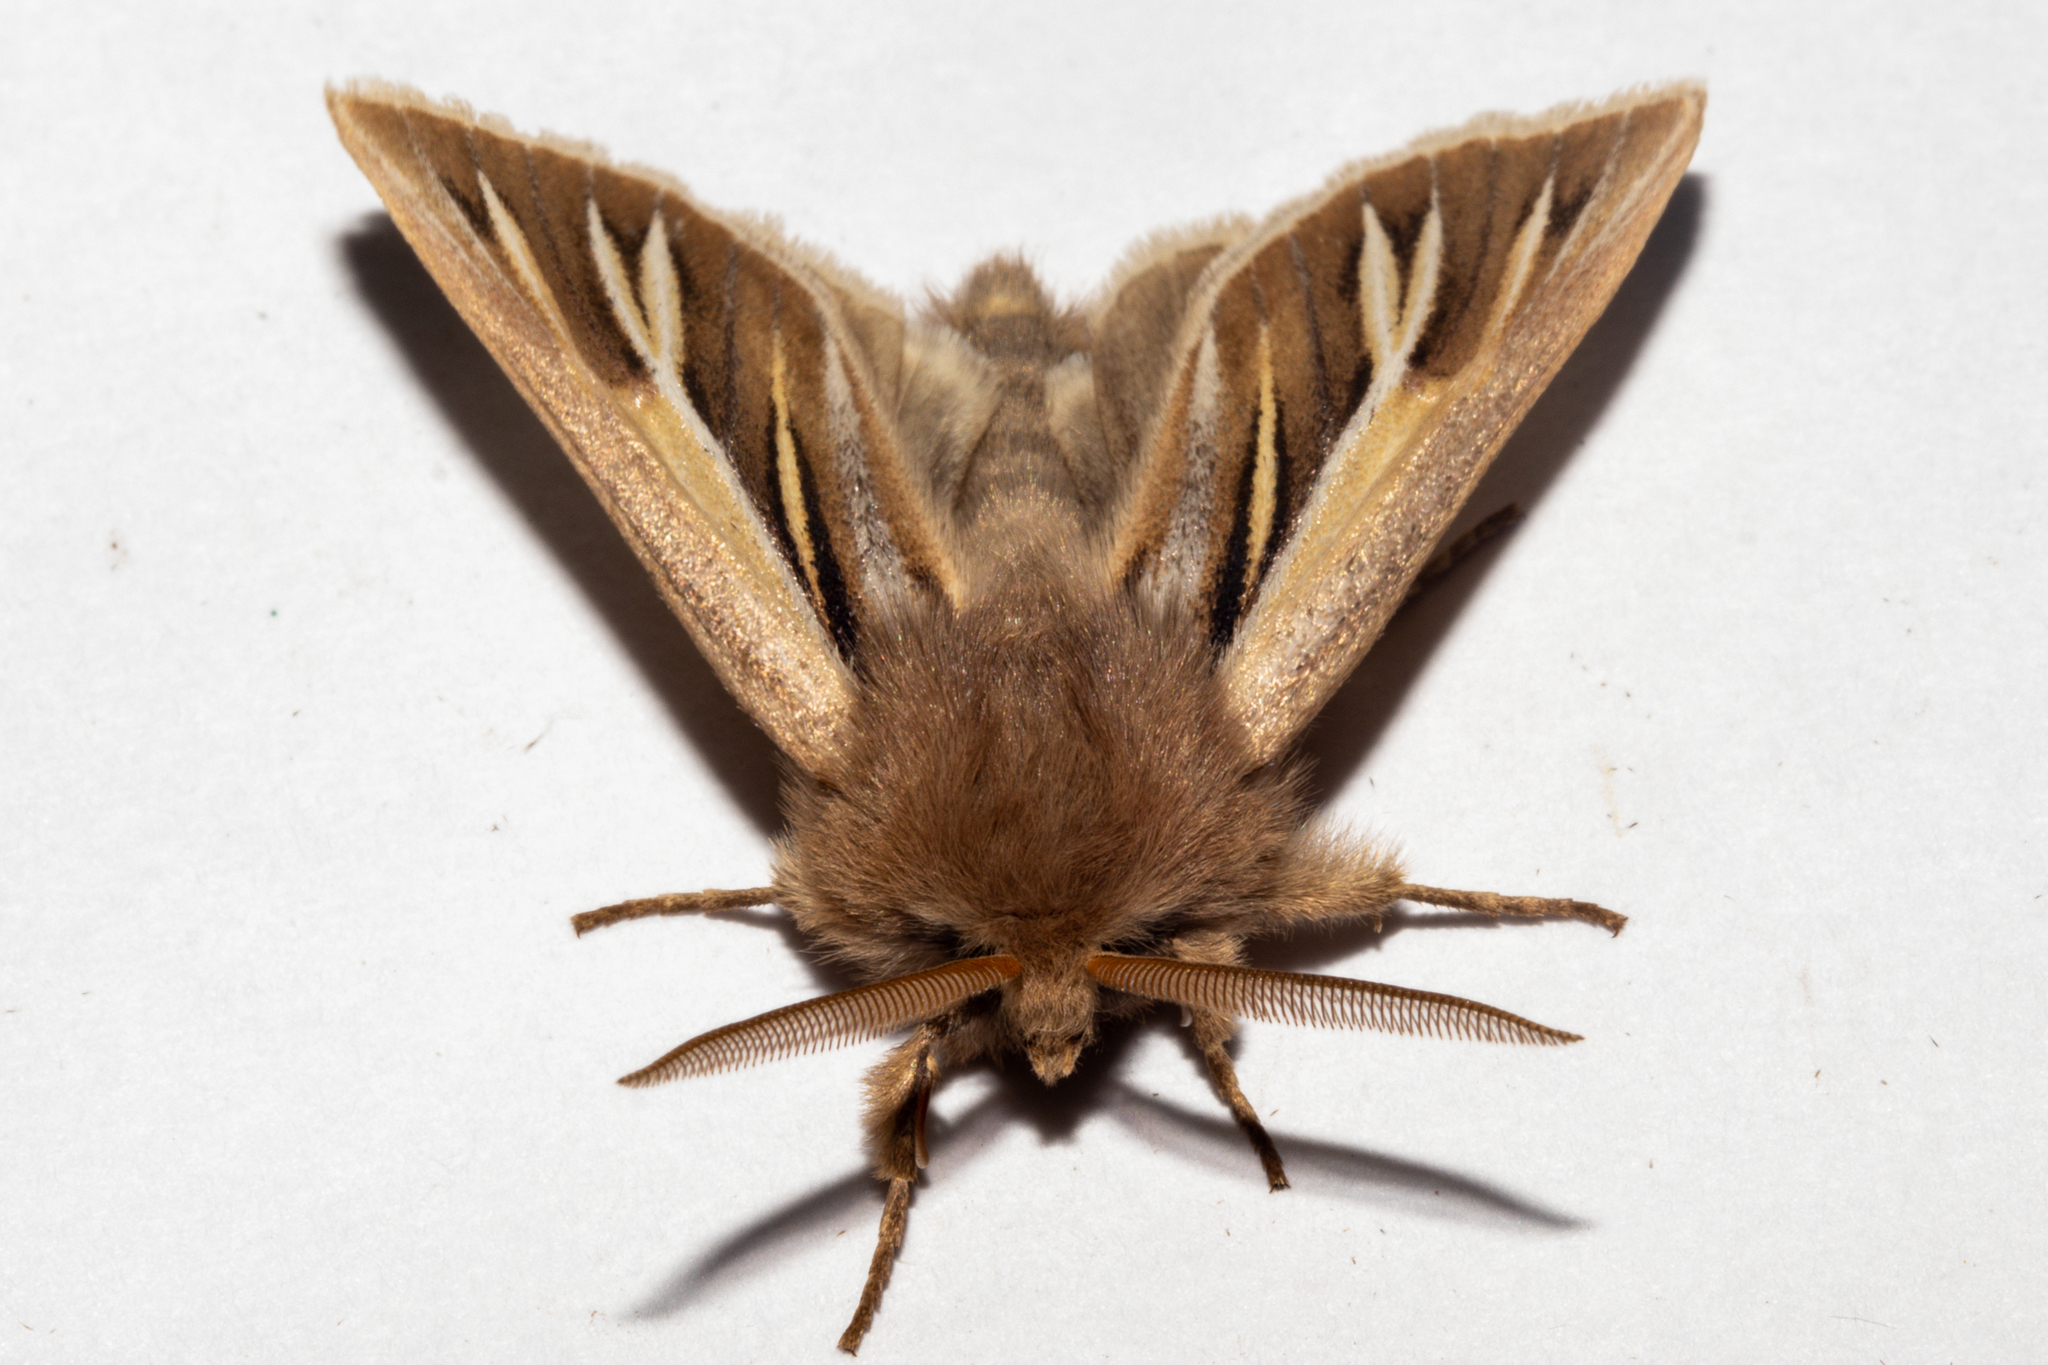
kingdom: Animalia
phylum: Arthropoda
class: Insecta
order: Lepidoptera
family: Noctuidae
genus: Ichneutica
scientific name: Ichneutica caraunias
